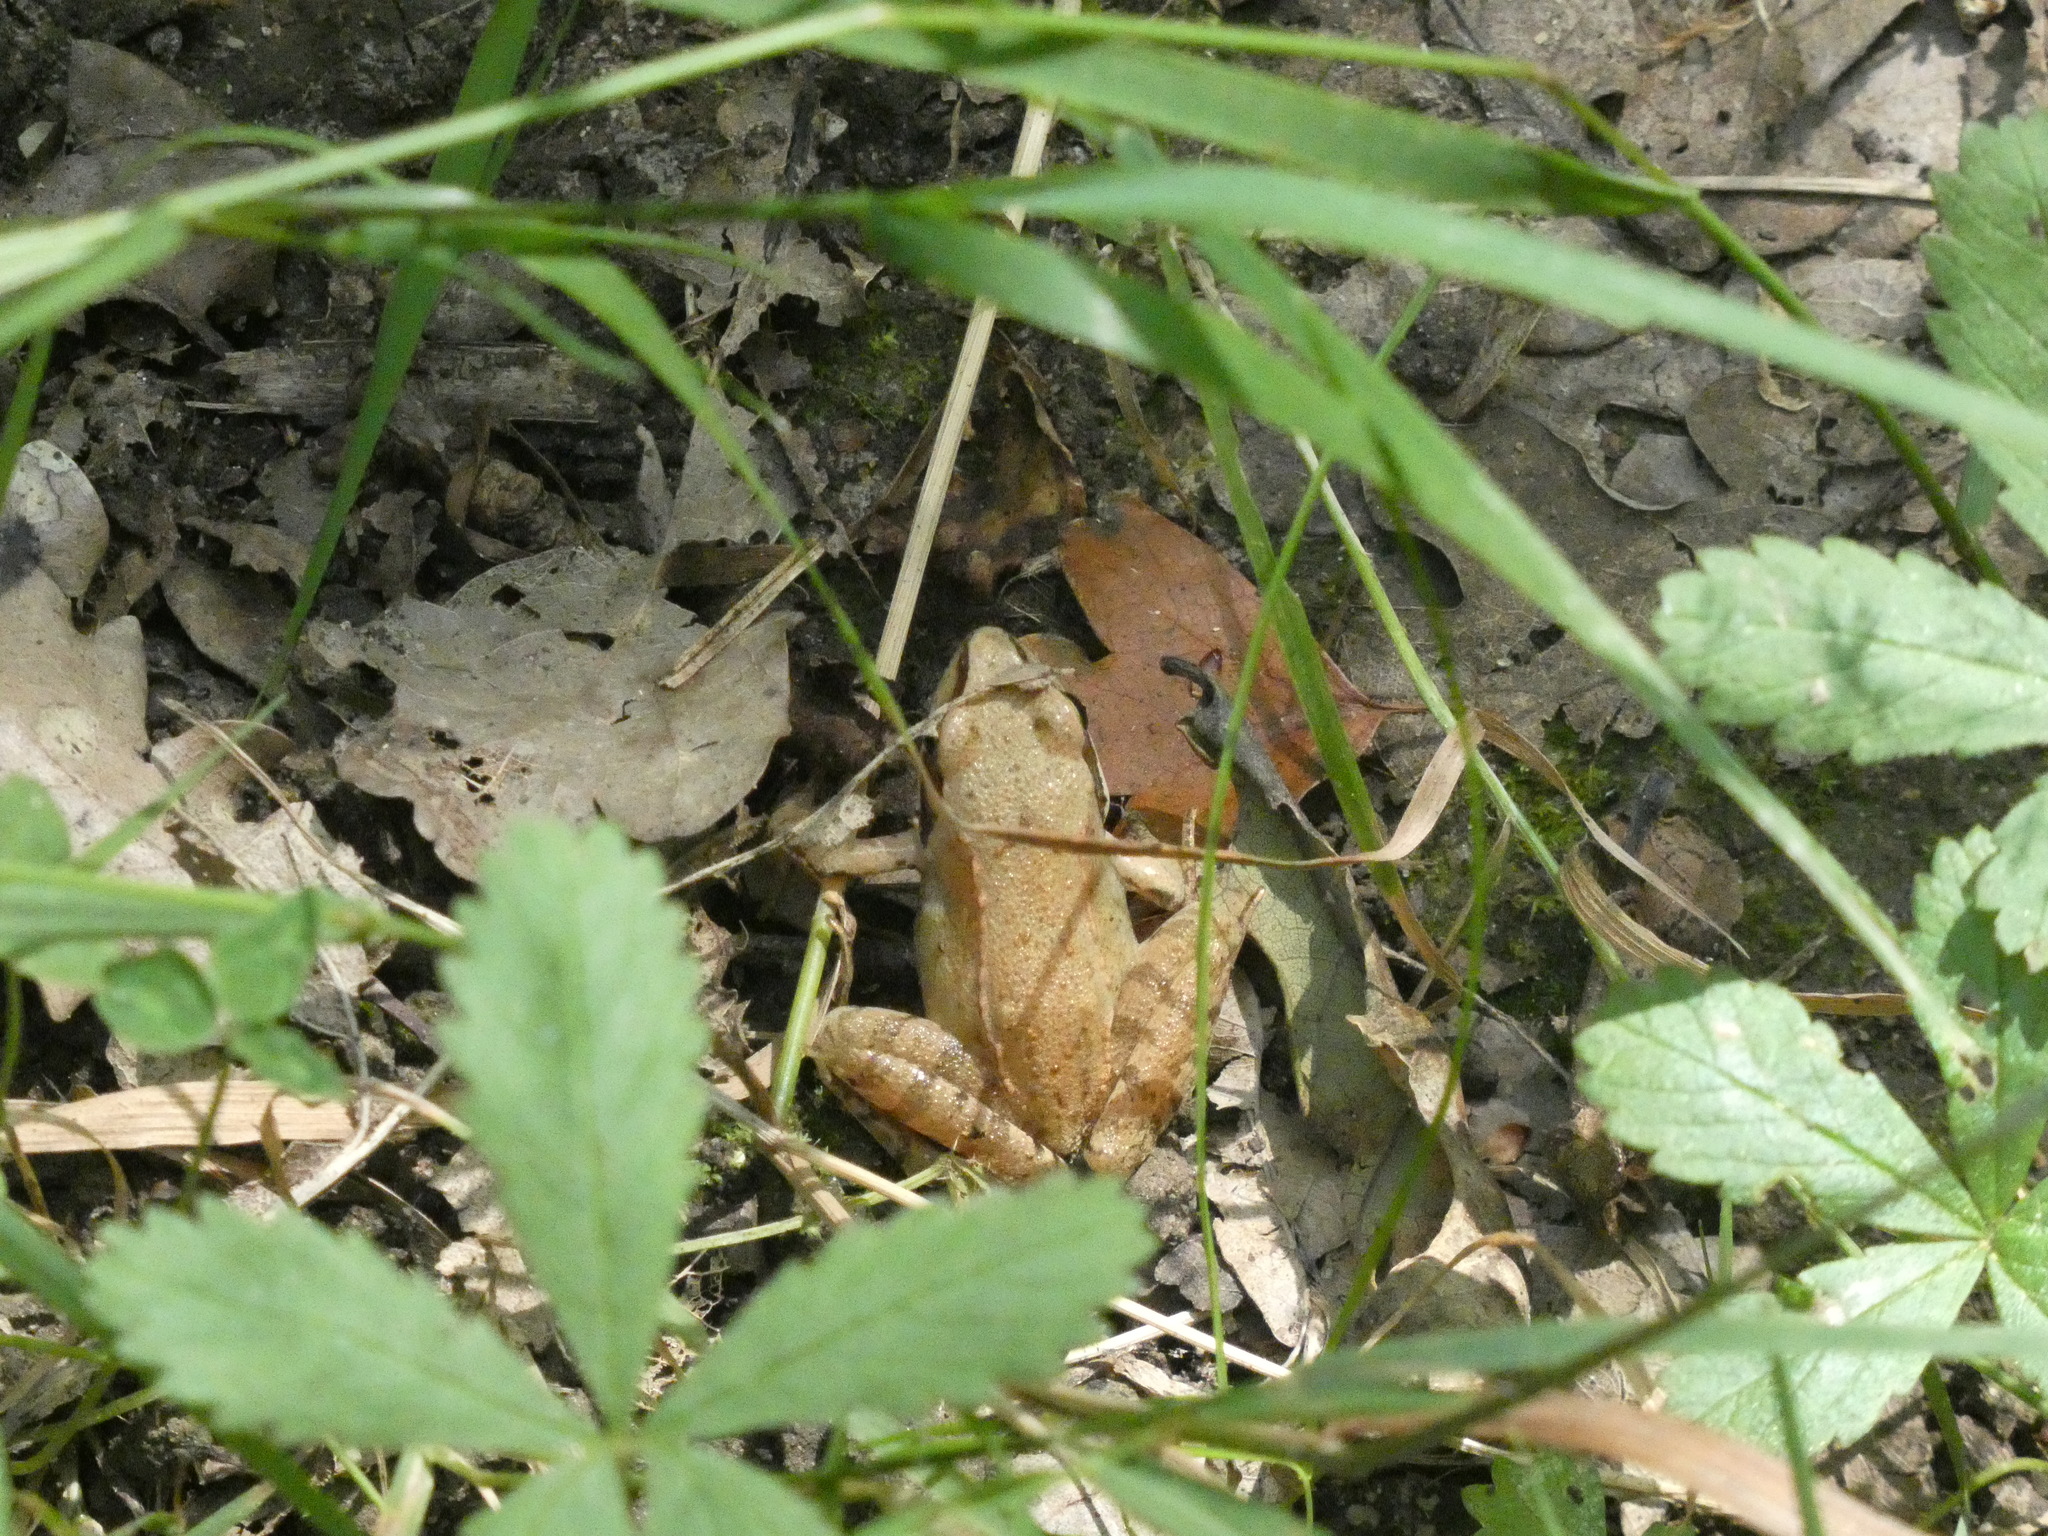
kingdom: Animalia
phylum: Chordata
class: Amphibia
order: Anura
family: Ranidae
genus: Rana
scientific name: Rana dalmatina
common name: Agile frog
